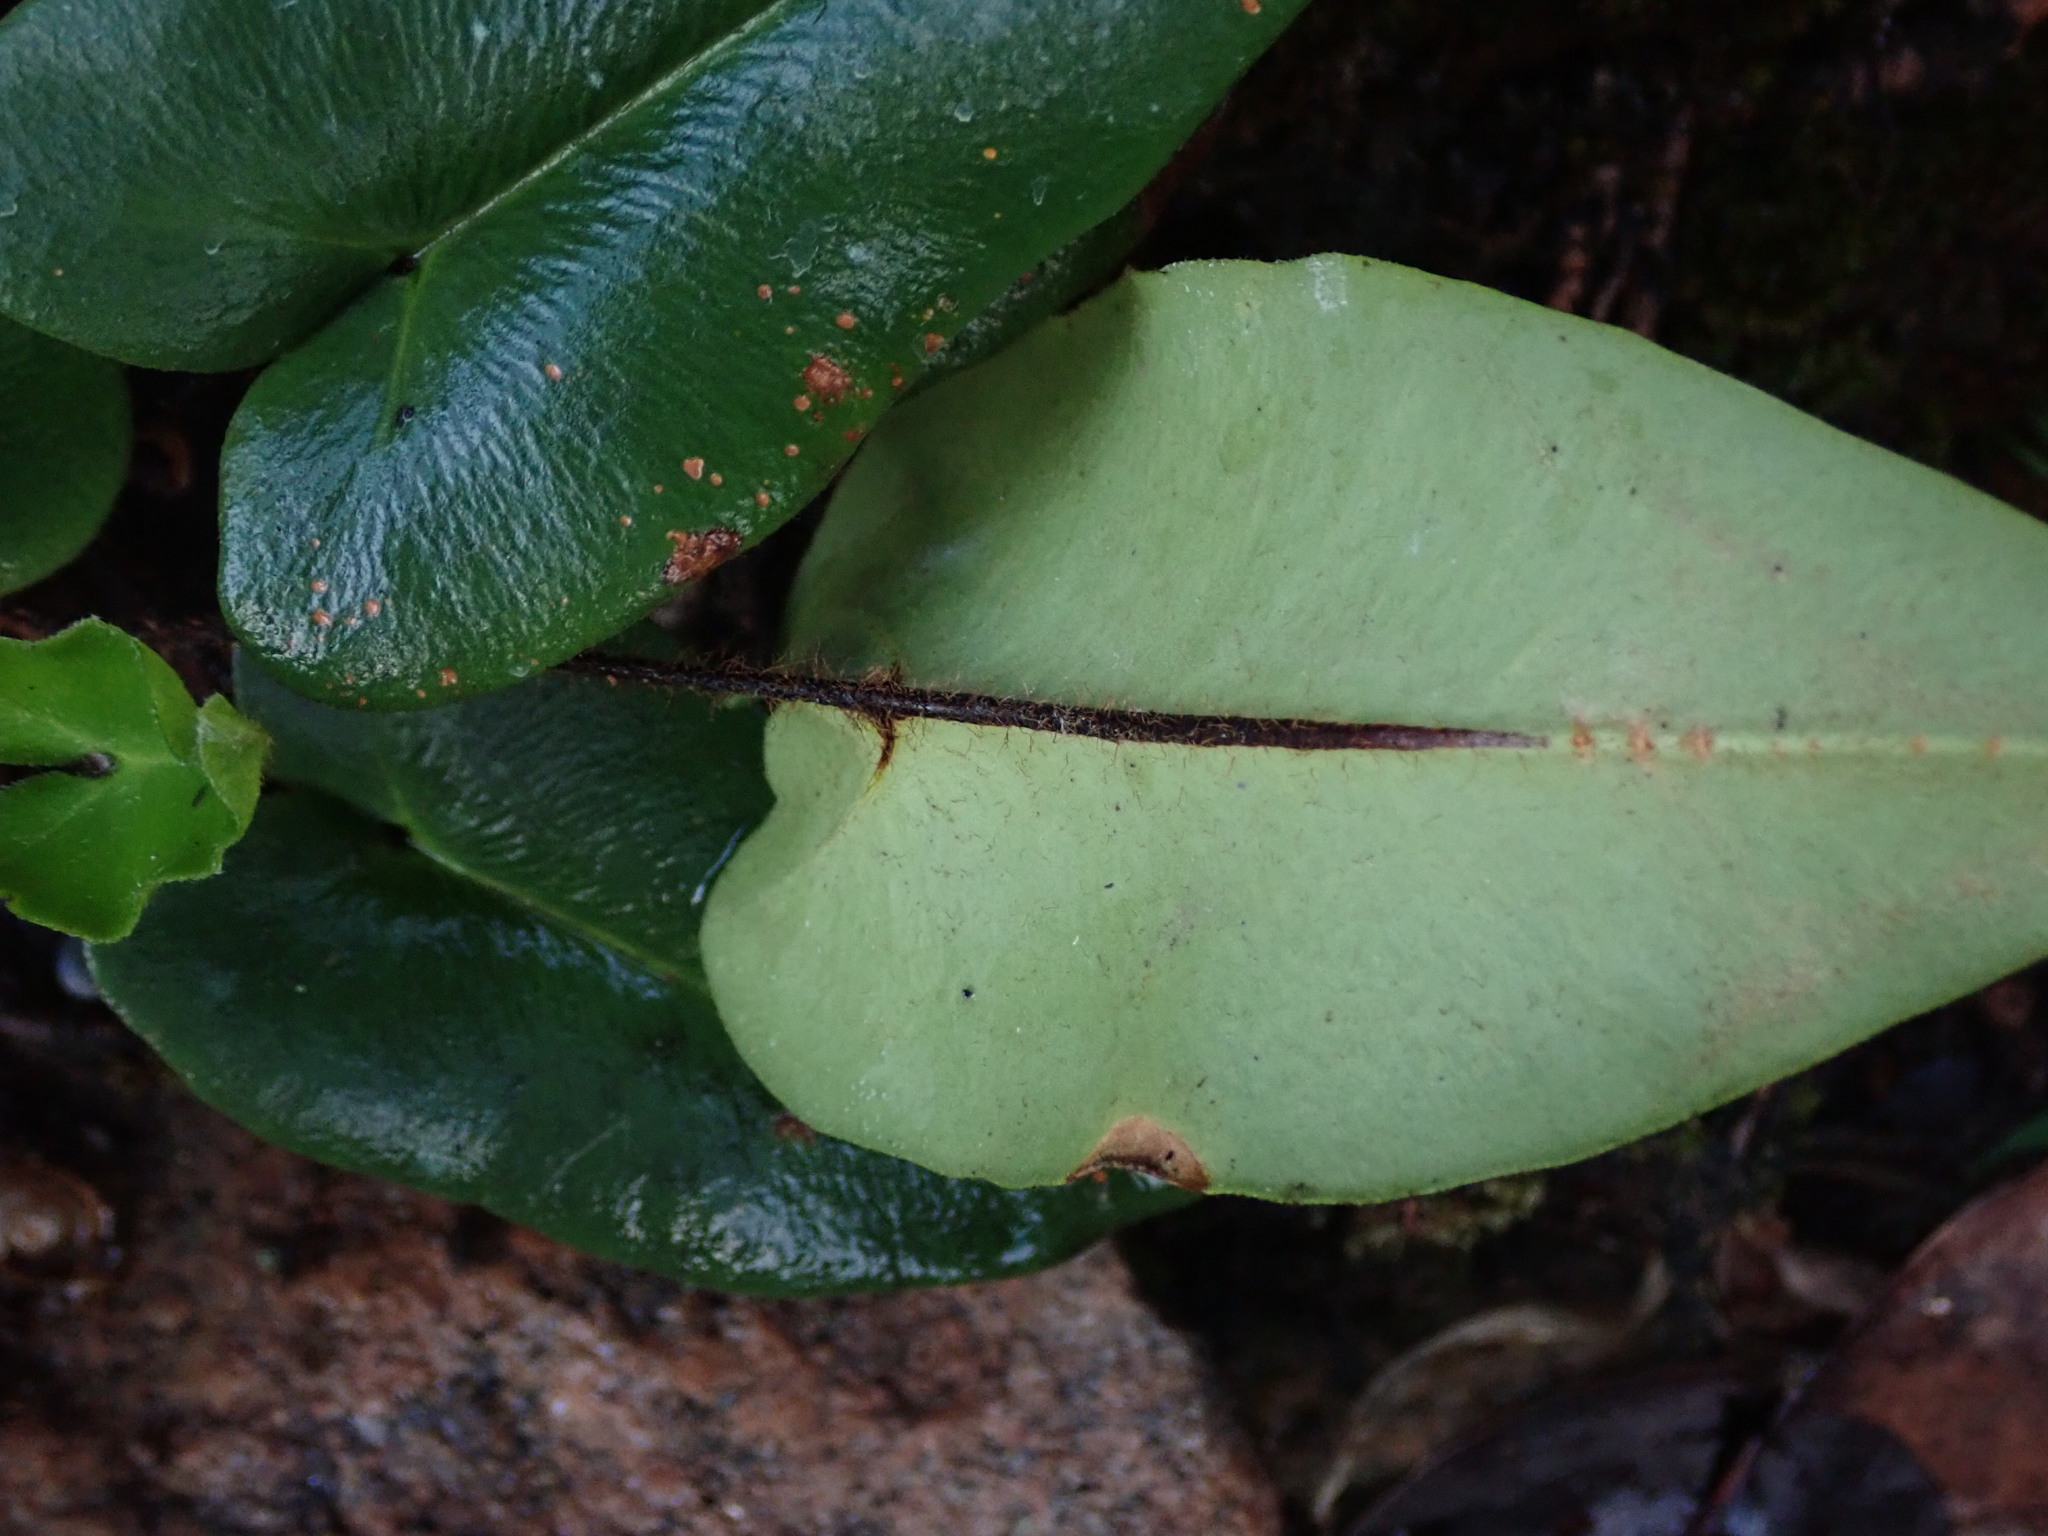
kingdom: Plantae
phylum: Tracheophyta
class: Polypodiopsida
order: Polypodiales
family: Pteridaceae
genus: Mickelopteris
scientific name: Mickelopteris cordata
